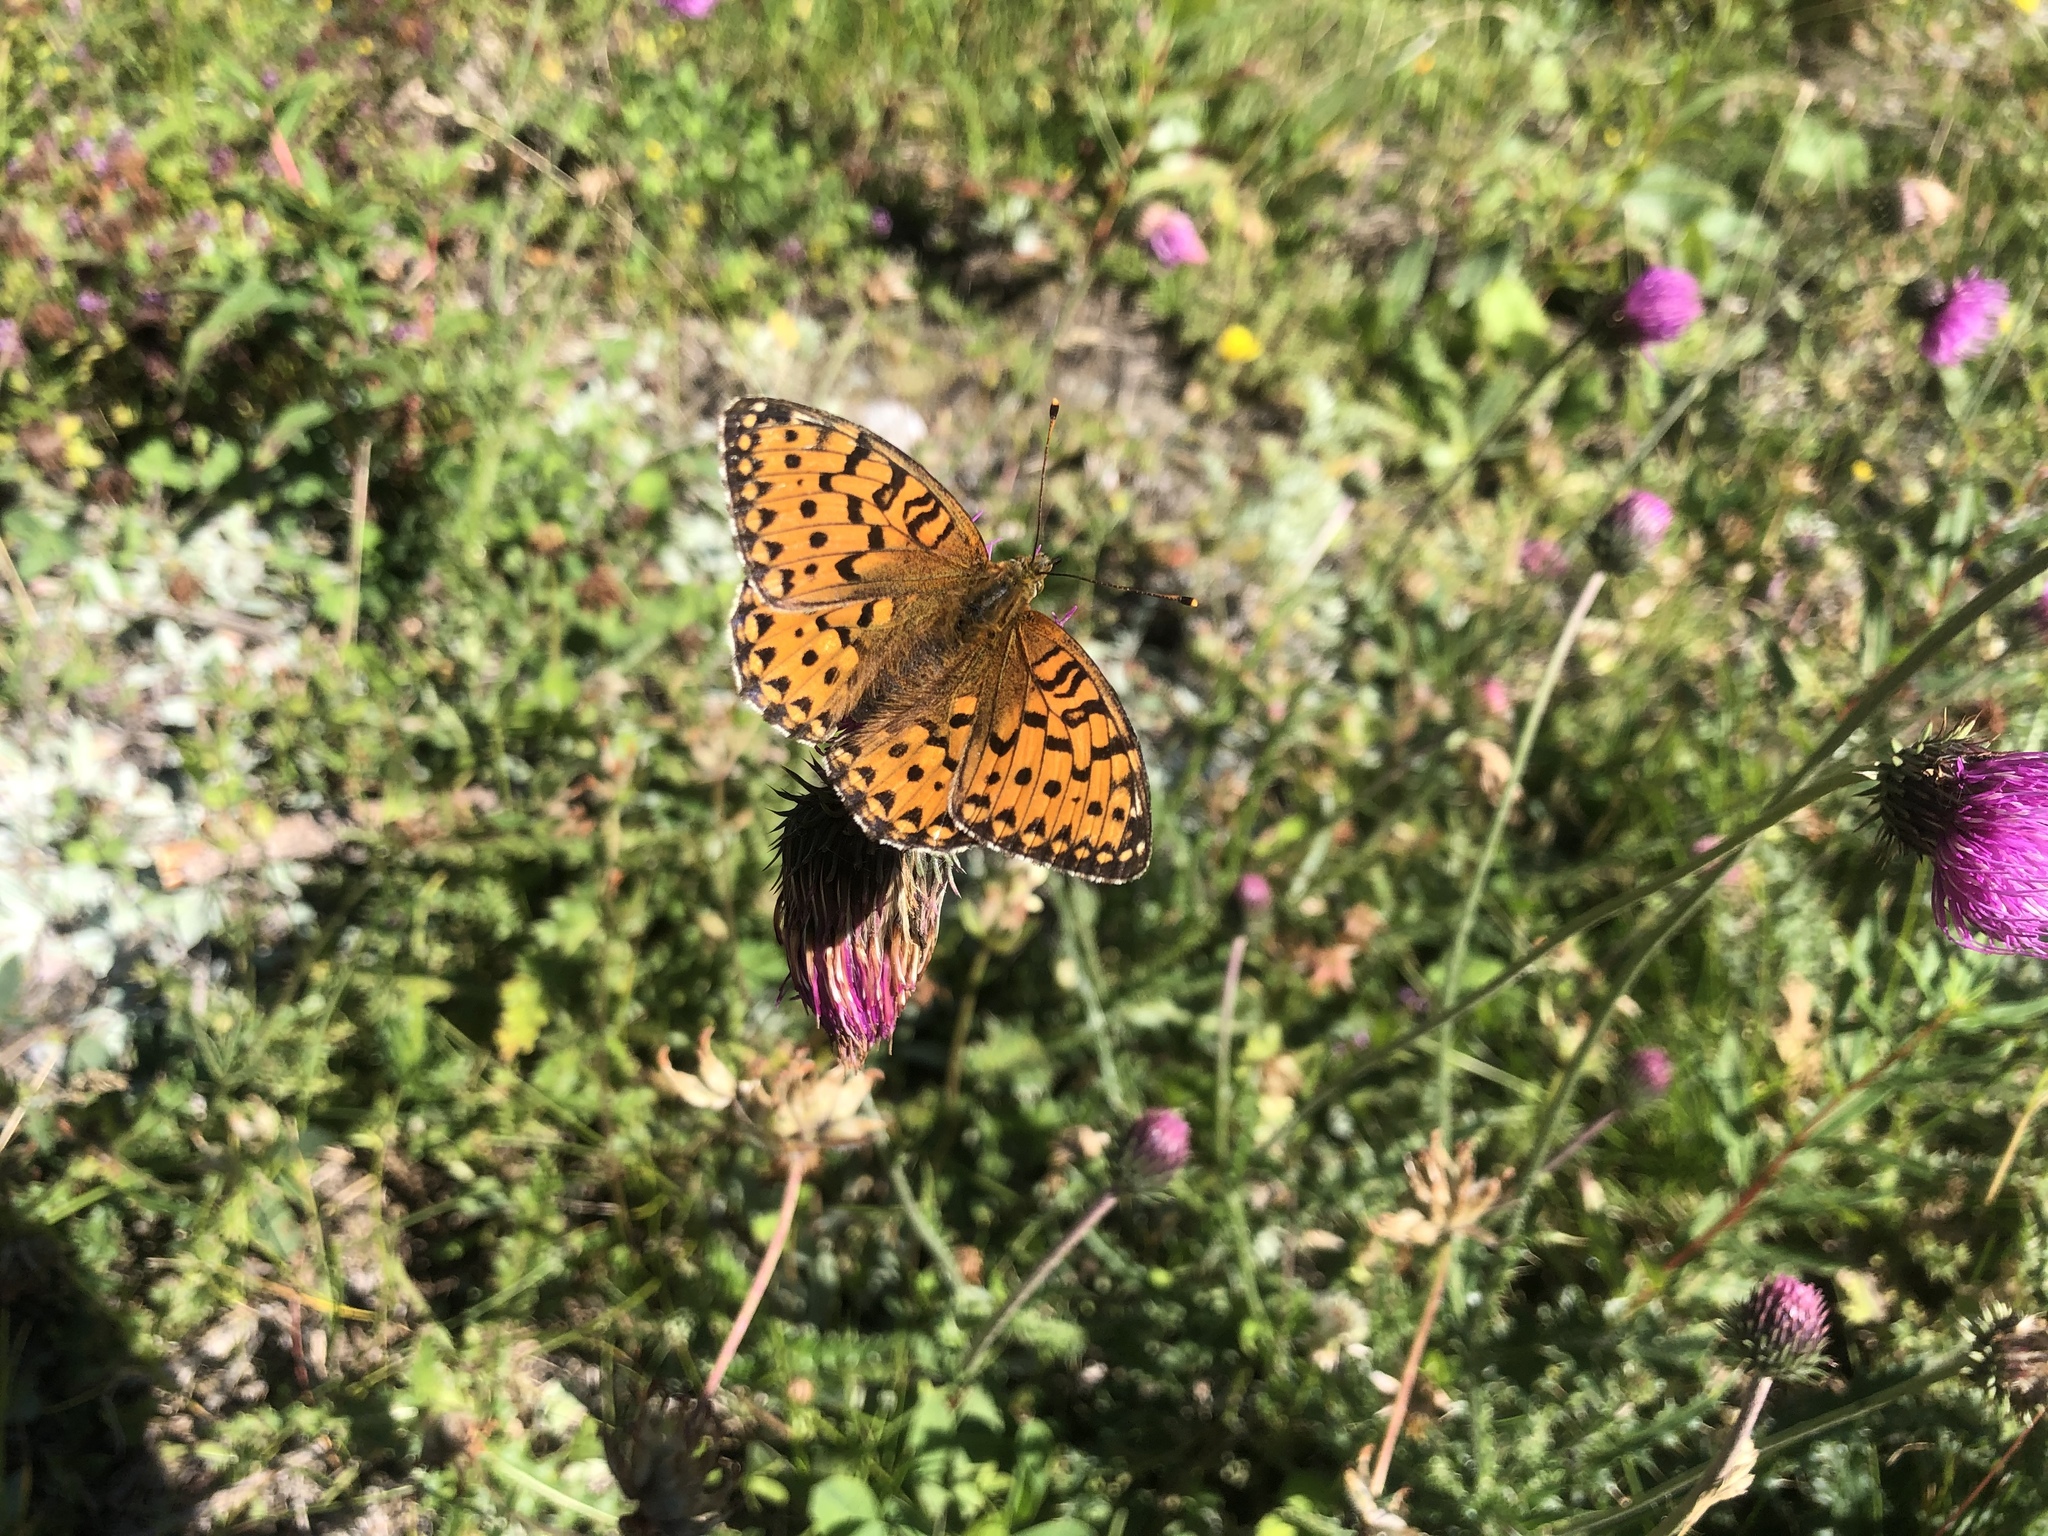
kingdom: Animalia
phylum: Arthropoda
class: Insecta
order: Lepidoptera
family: Nymphalidae
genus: Speyeria
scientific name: Speyeria aglaja
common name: Dark green fritillary
